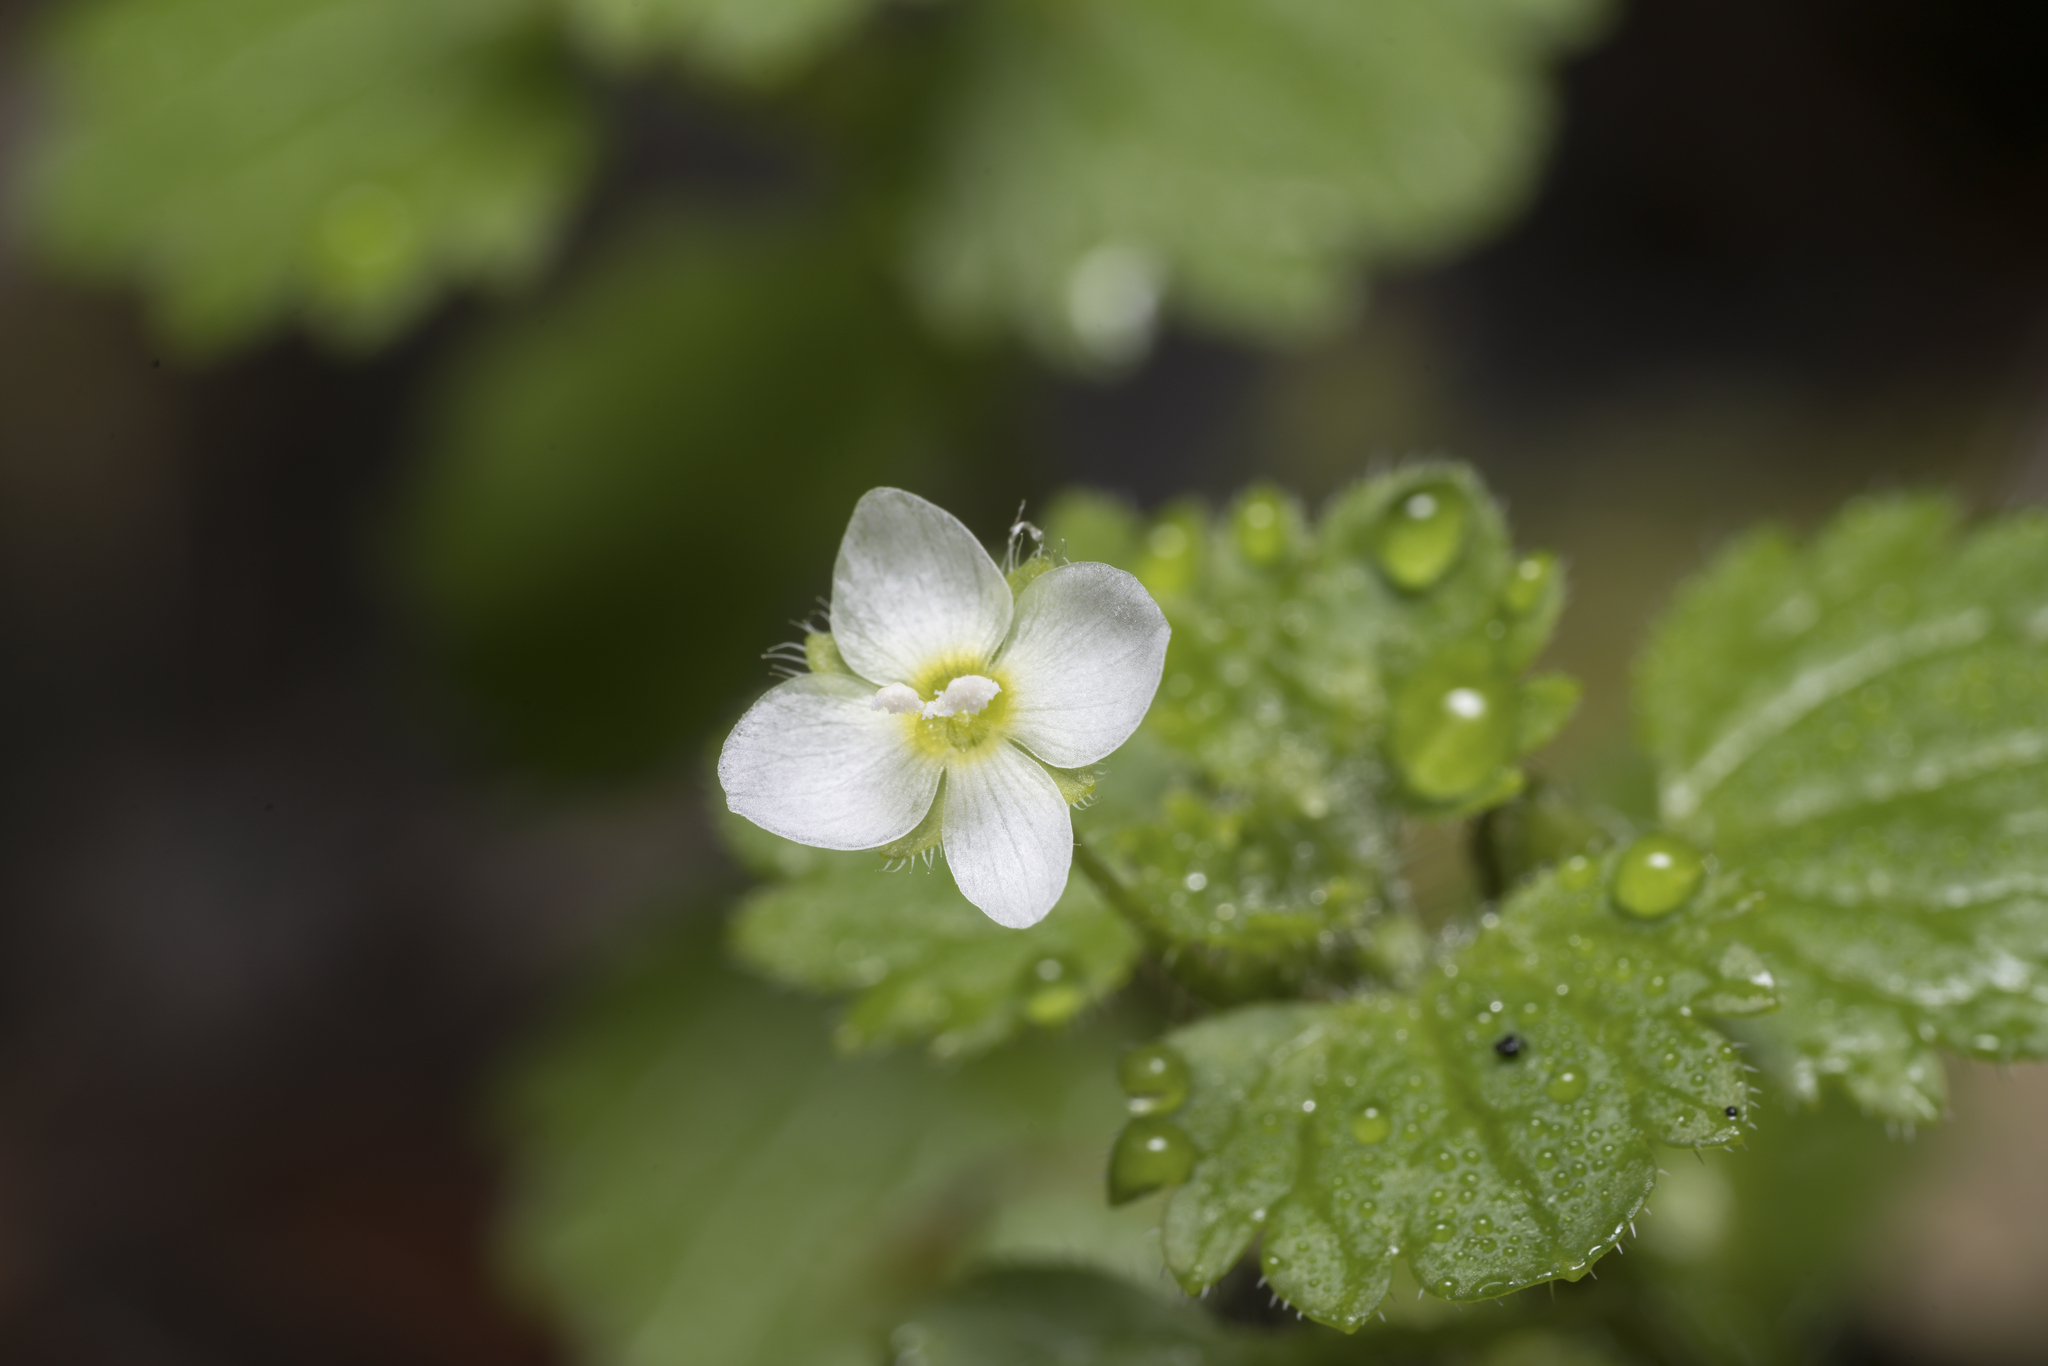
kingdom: Plantae
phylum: Tracheophyta
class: Magnoliopsida
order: Lamiales
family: Plantaginaceae
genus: Veronica
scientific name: Veronica cymbalaria
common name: Pale speedwell
